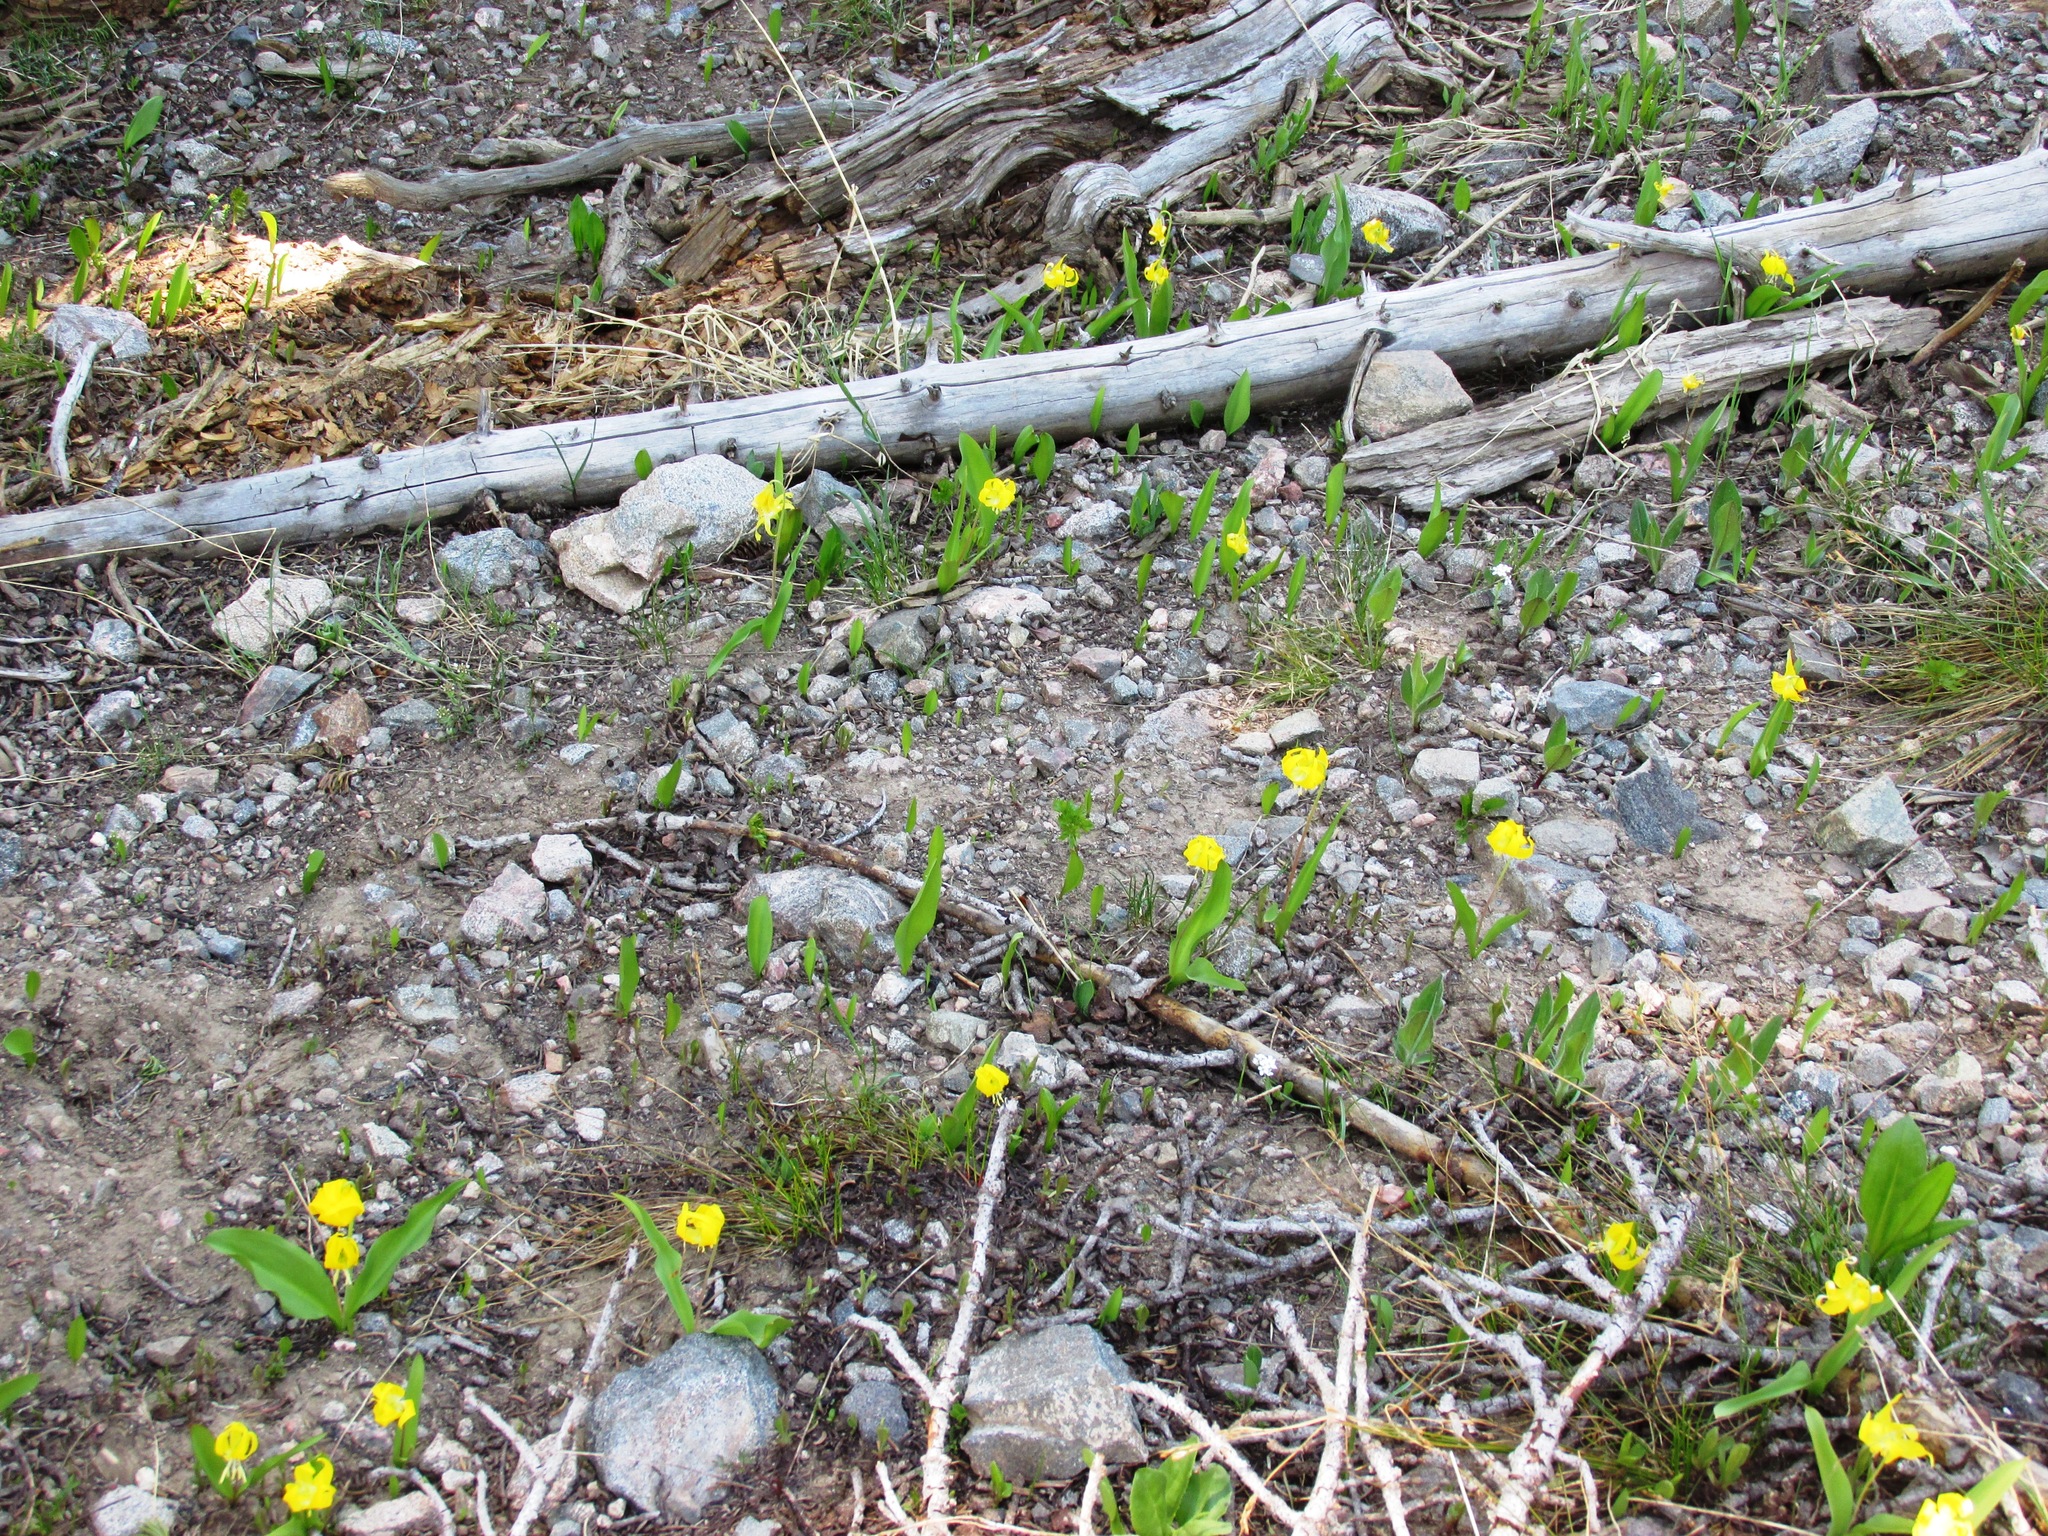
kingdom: Plantae
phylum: Tracheophyta
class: Liliopsida
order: Liliales
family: Liliaceae
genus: Erythronium
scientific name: Erythronium grandiflorum
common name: Avalanche-lily
